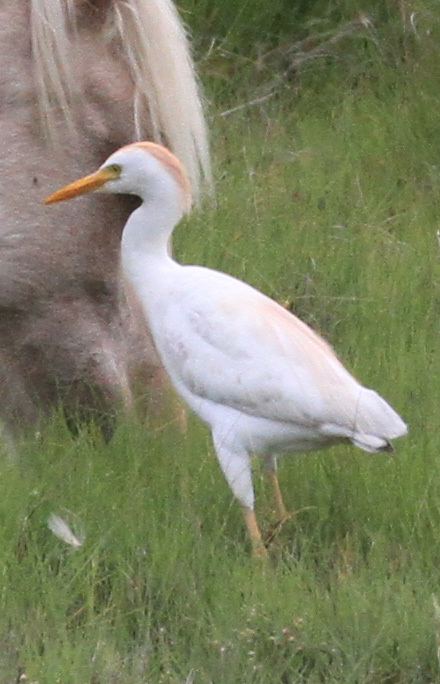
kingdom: Animalia
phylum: Chordata
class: Aves
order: Pelecaniformes
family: Ardeidae
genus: Bubulcus
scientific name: Bubulcus ibis
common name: Cattle egret
